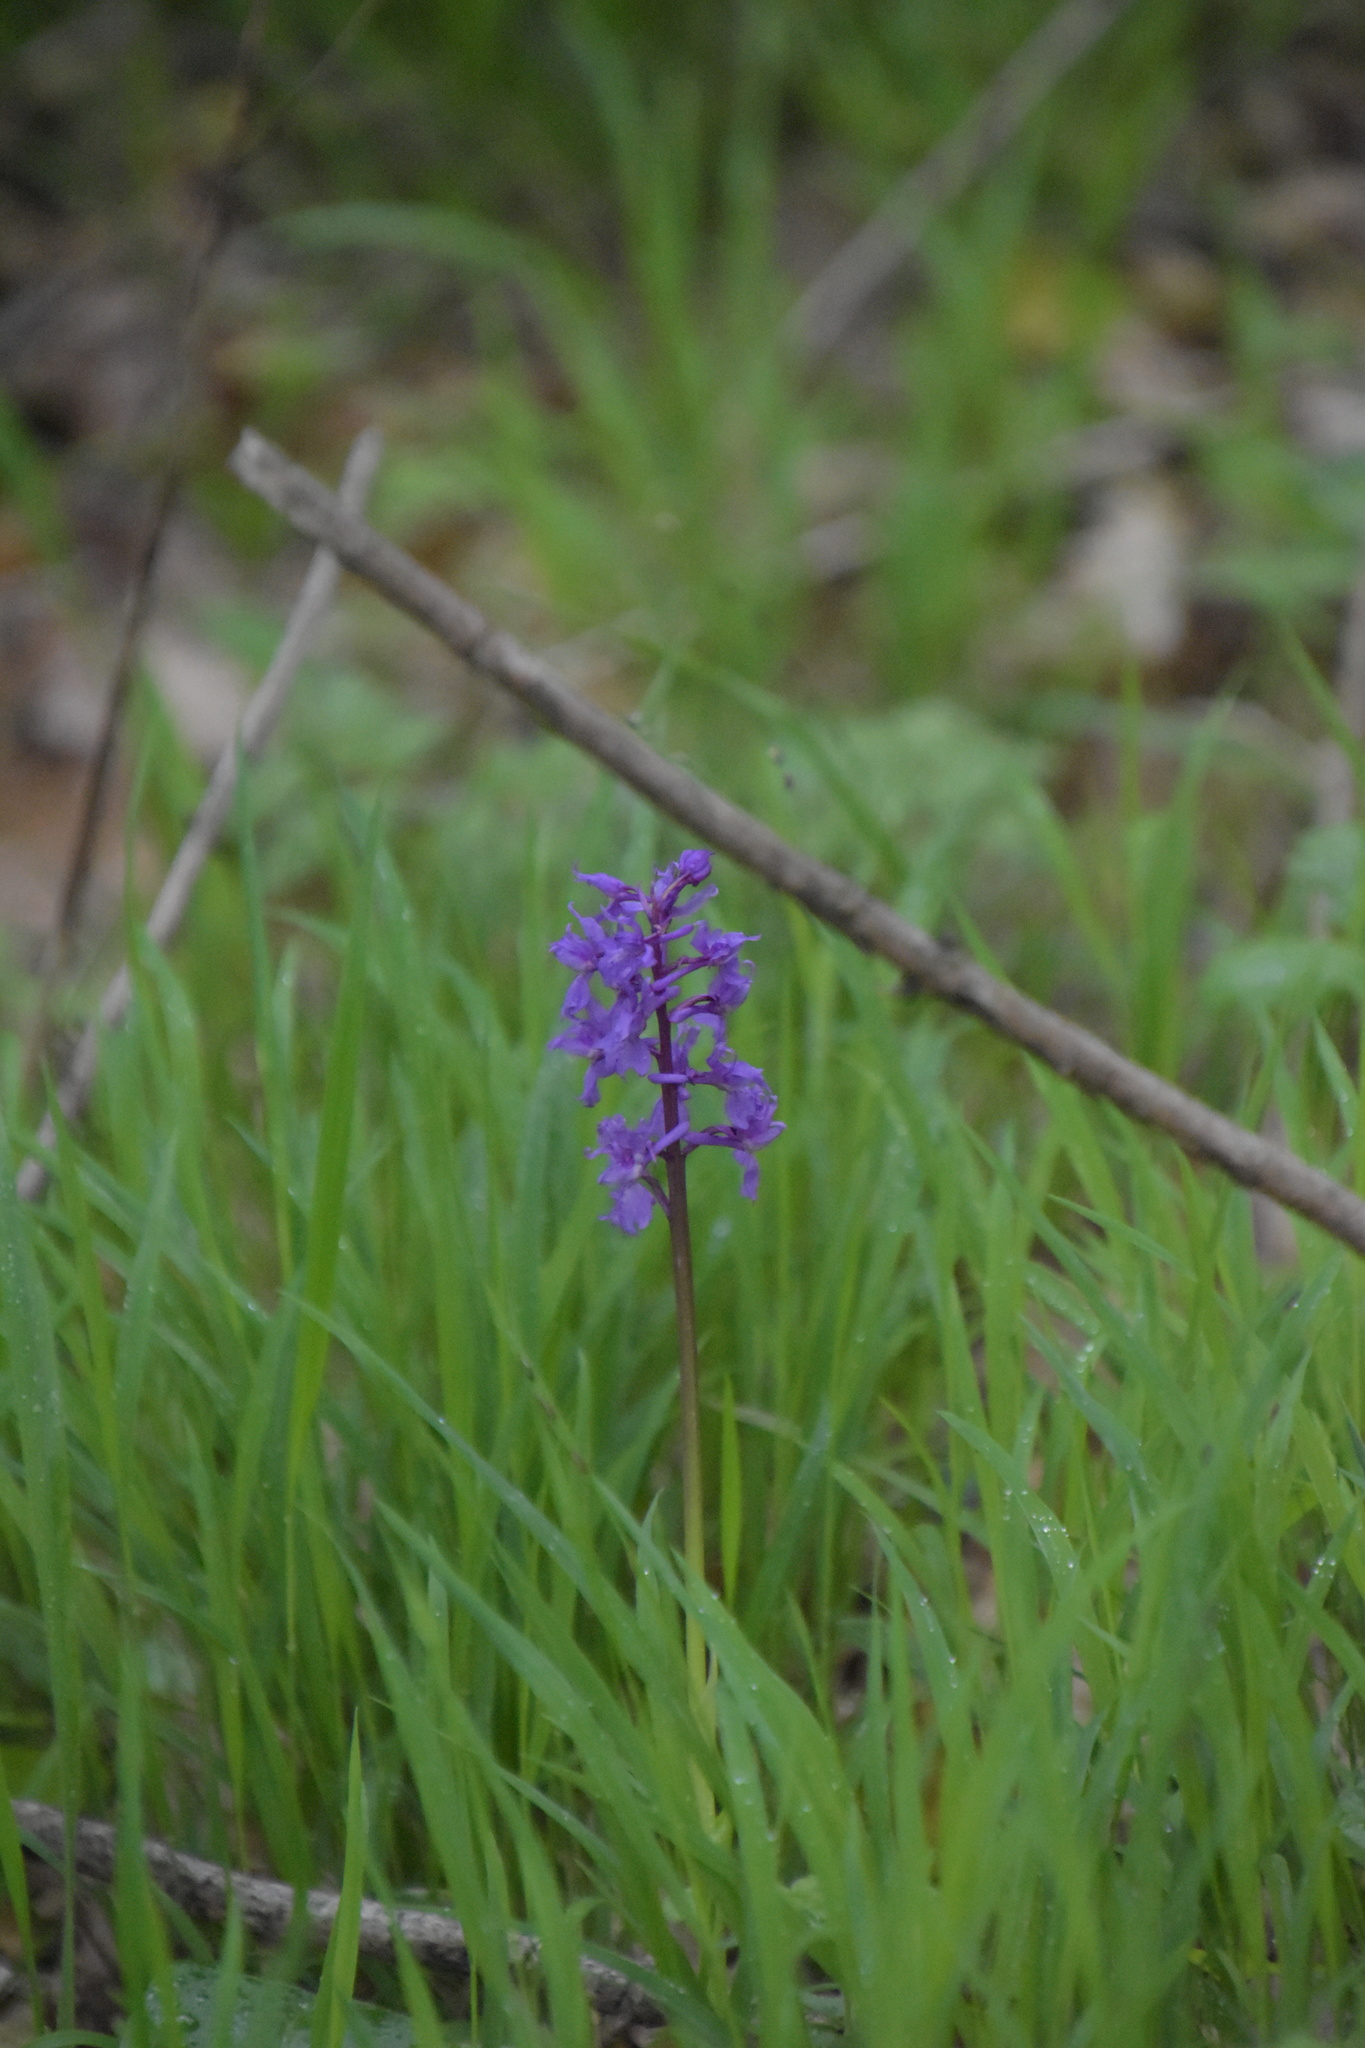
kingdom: Plantae
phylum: Tracheophyta
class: Liliopsida
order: Asparagales
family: Orchidaceae
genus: Orchis
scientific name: Orchis mascula
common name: Early-purple orchid
